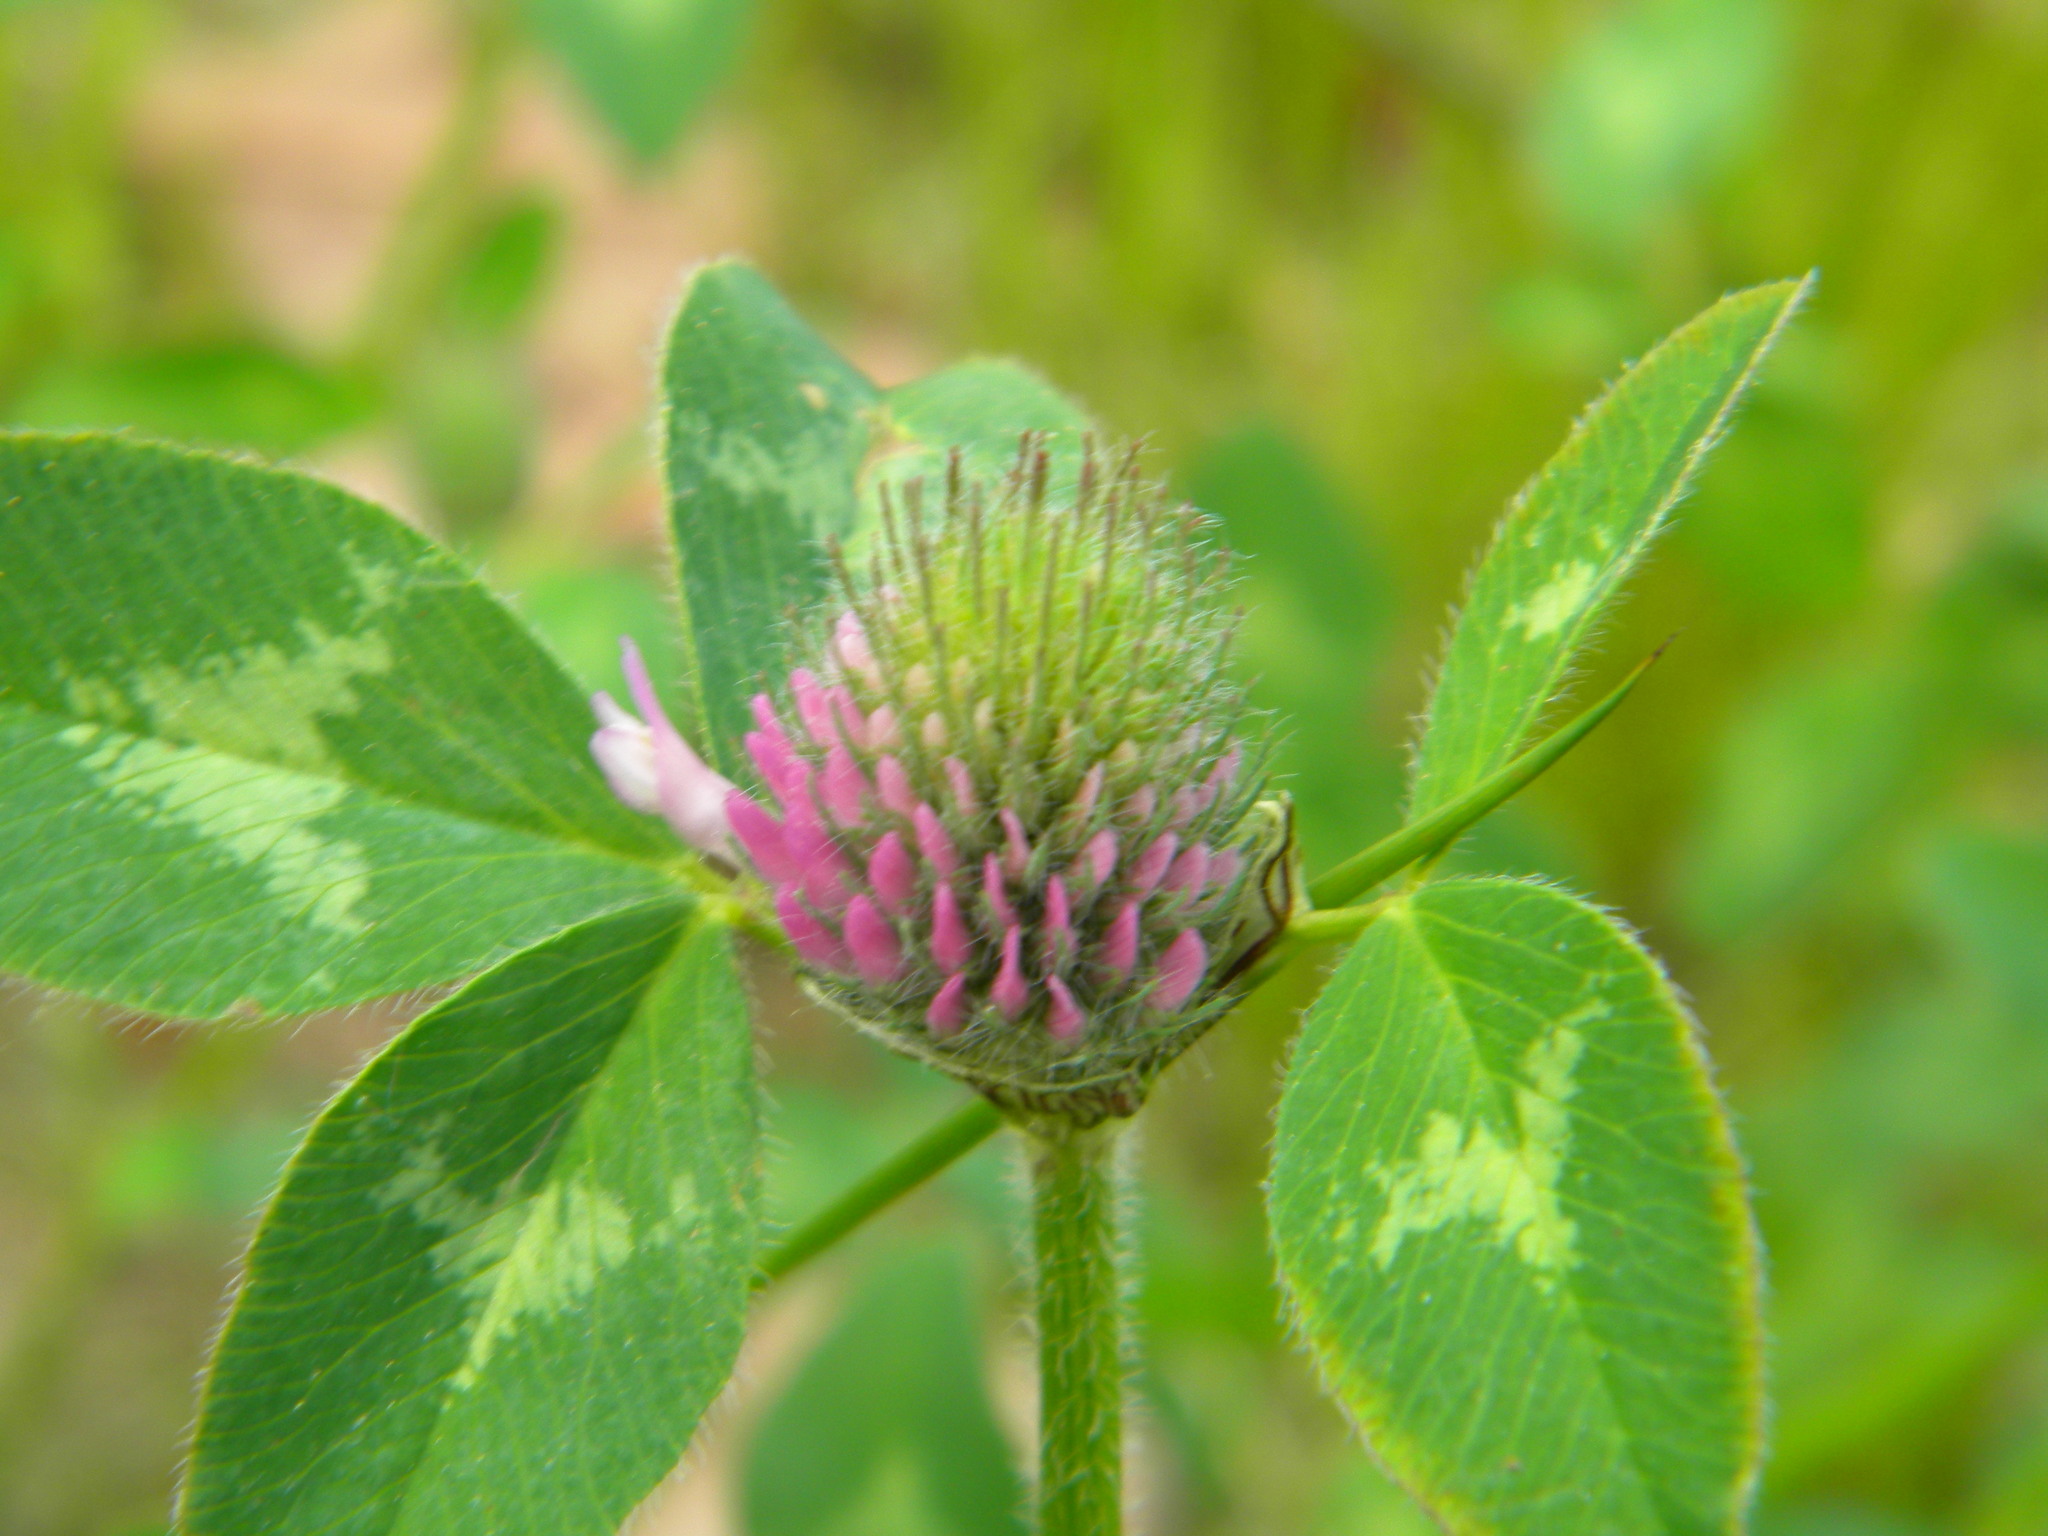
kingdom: Plantae
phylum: Tracheophyta
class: Magnoliopsida
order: Fabales
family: Fabaceae
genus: Trifolium
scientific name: Trifolium pratense
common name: Red clover
